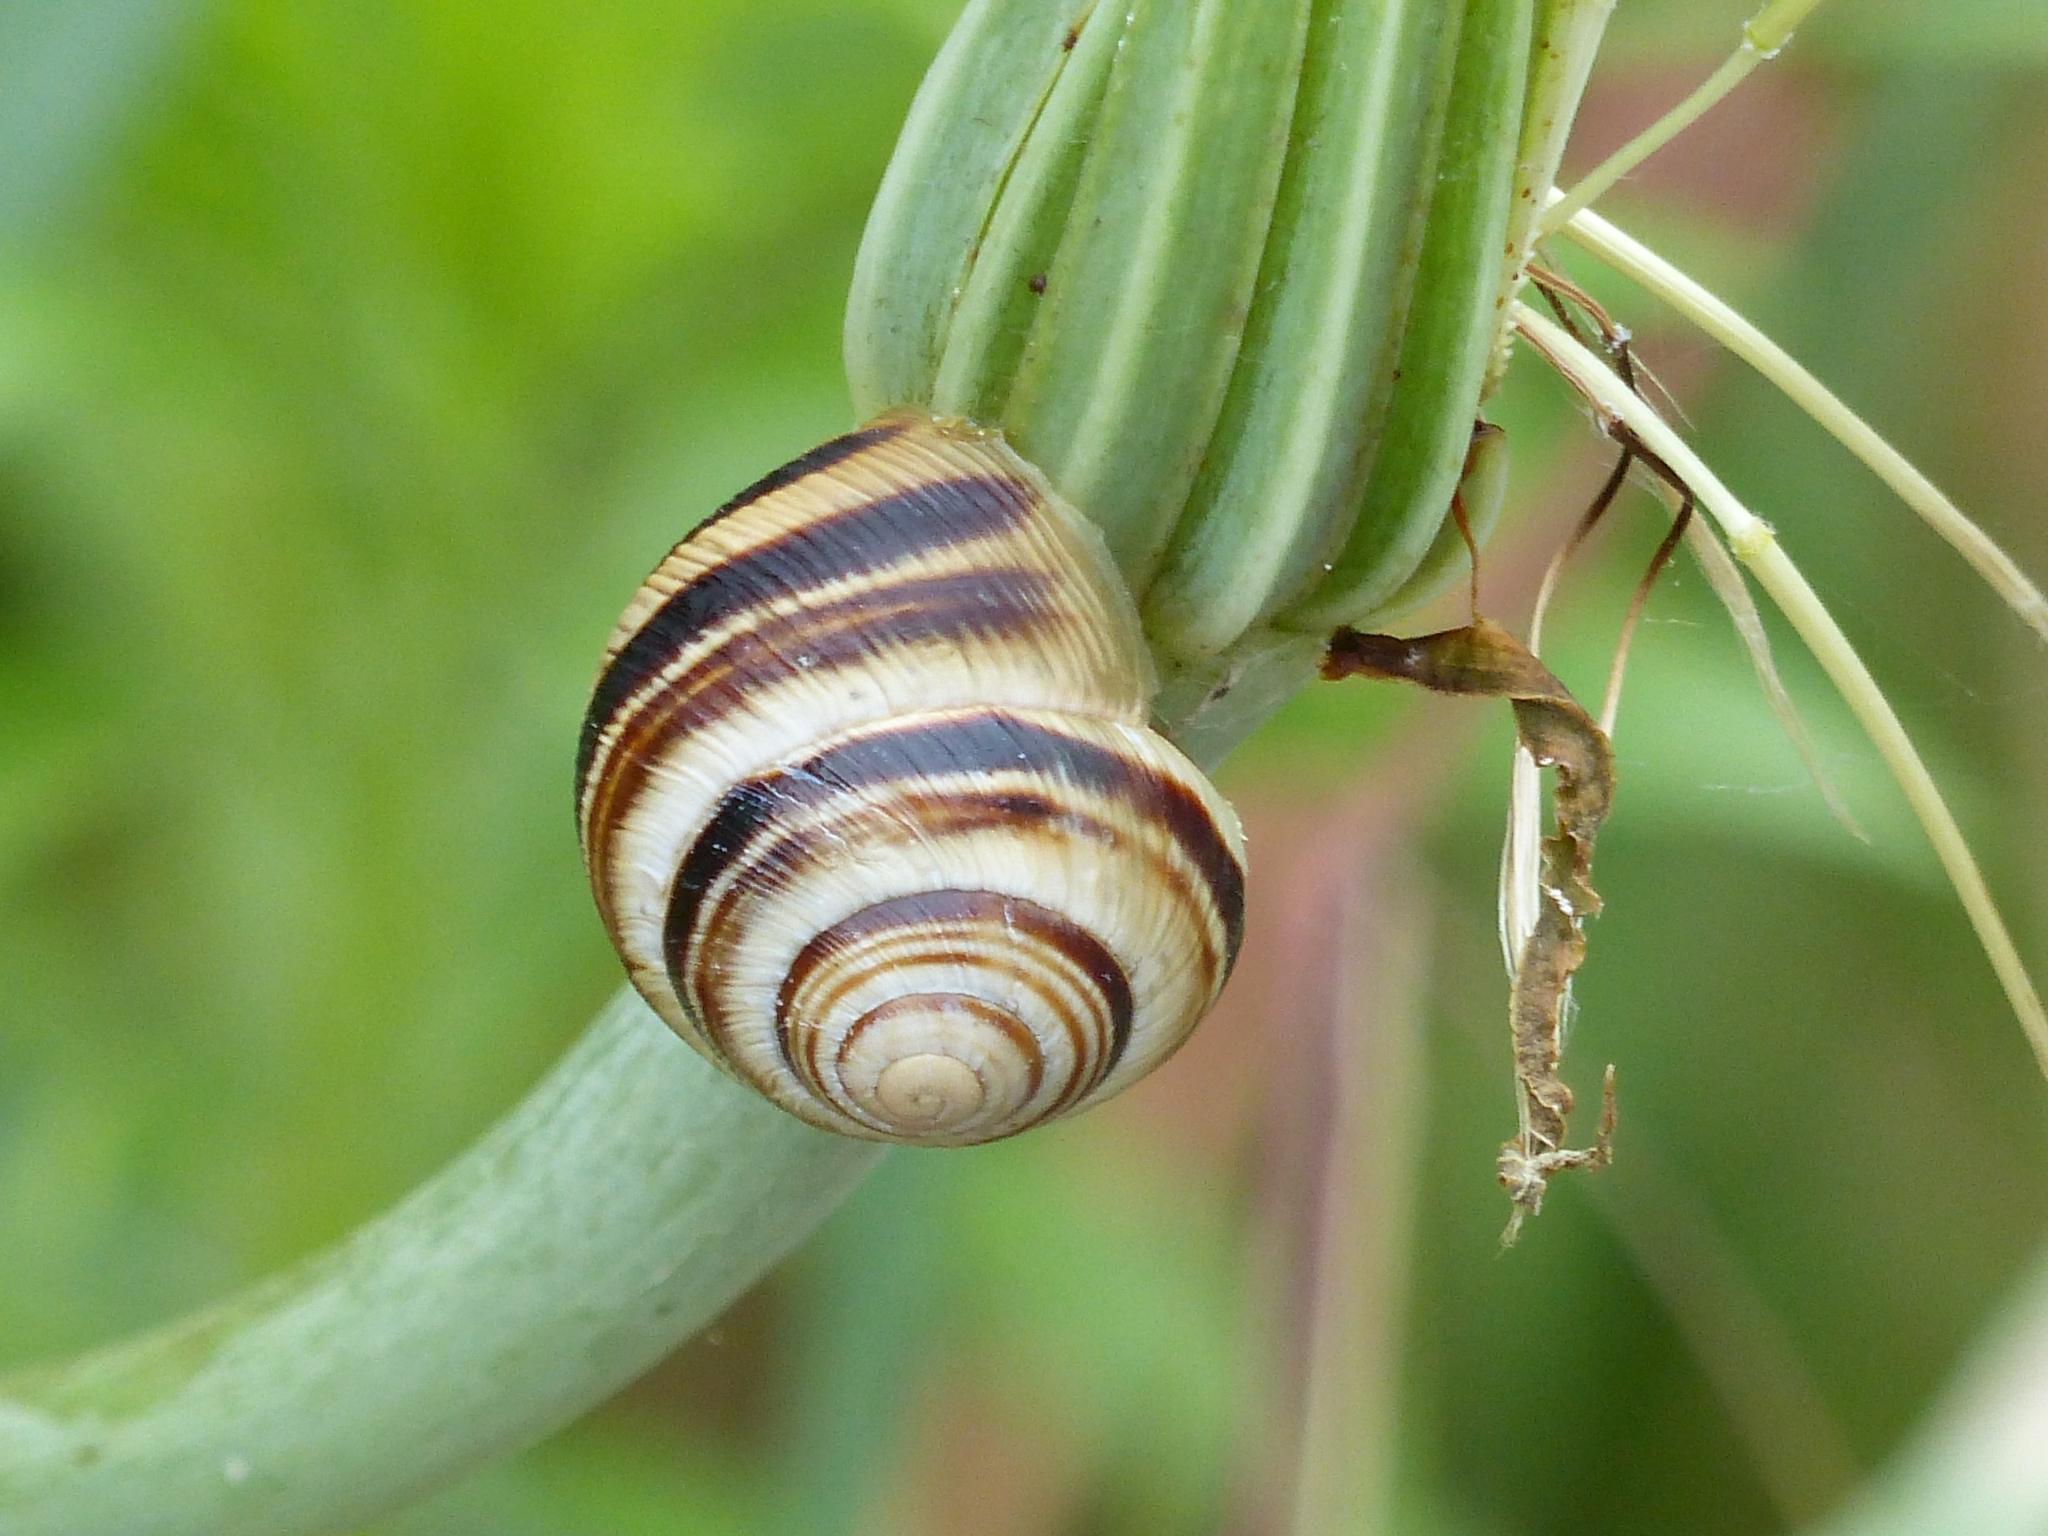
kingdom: Animalia
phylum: Mollusca
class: Gastropoda
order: Stylommatophora
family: Helicidae
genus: Caucasotachea
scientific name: Caucasotachea vindobonensis
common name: European helicid land snail
